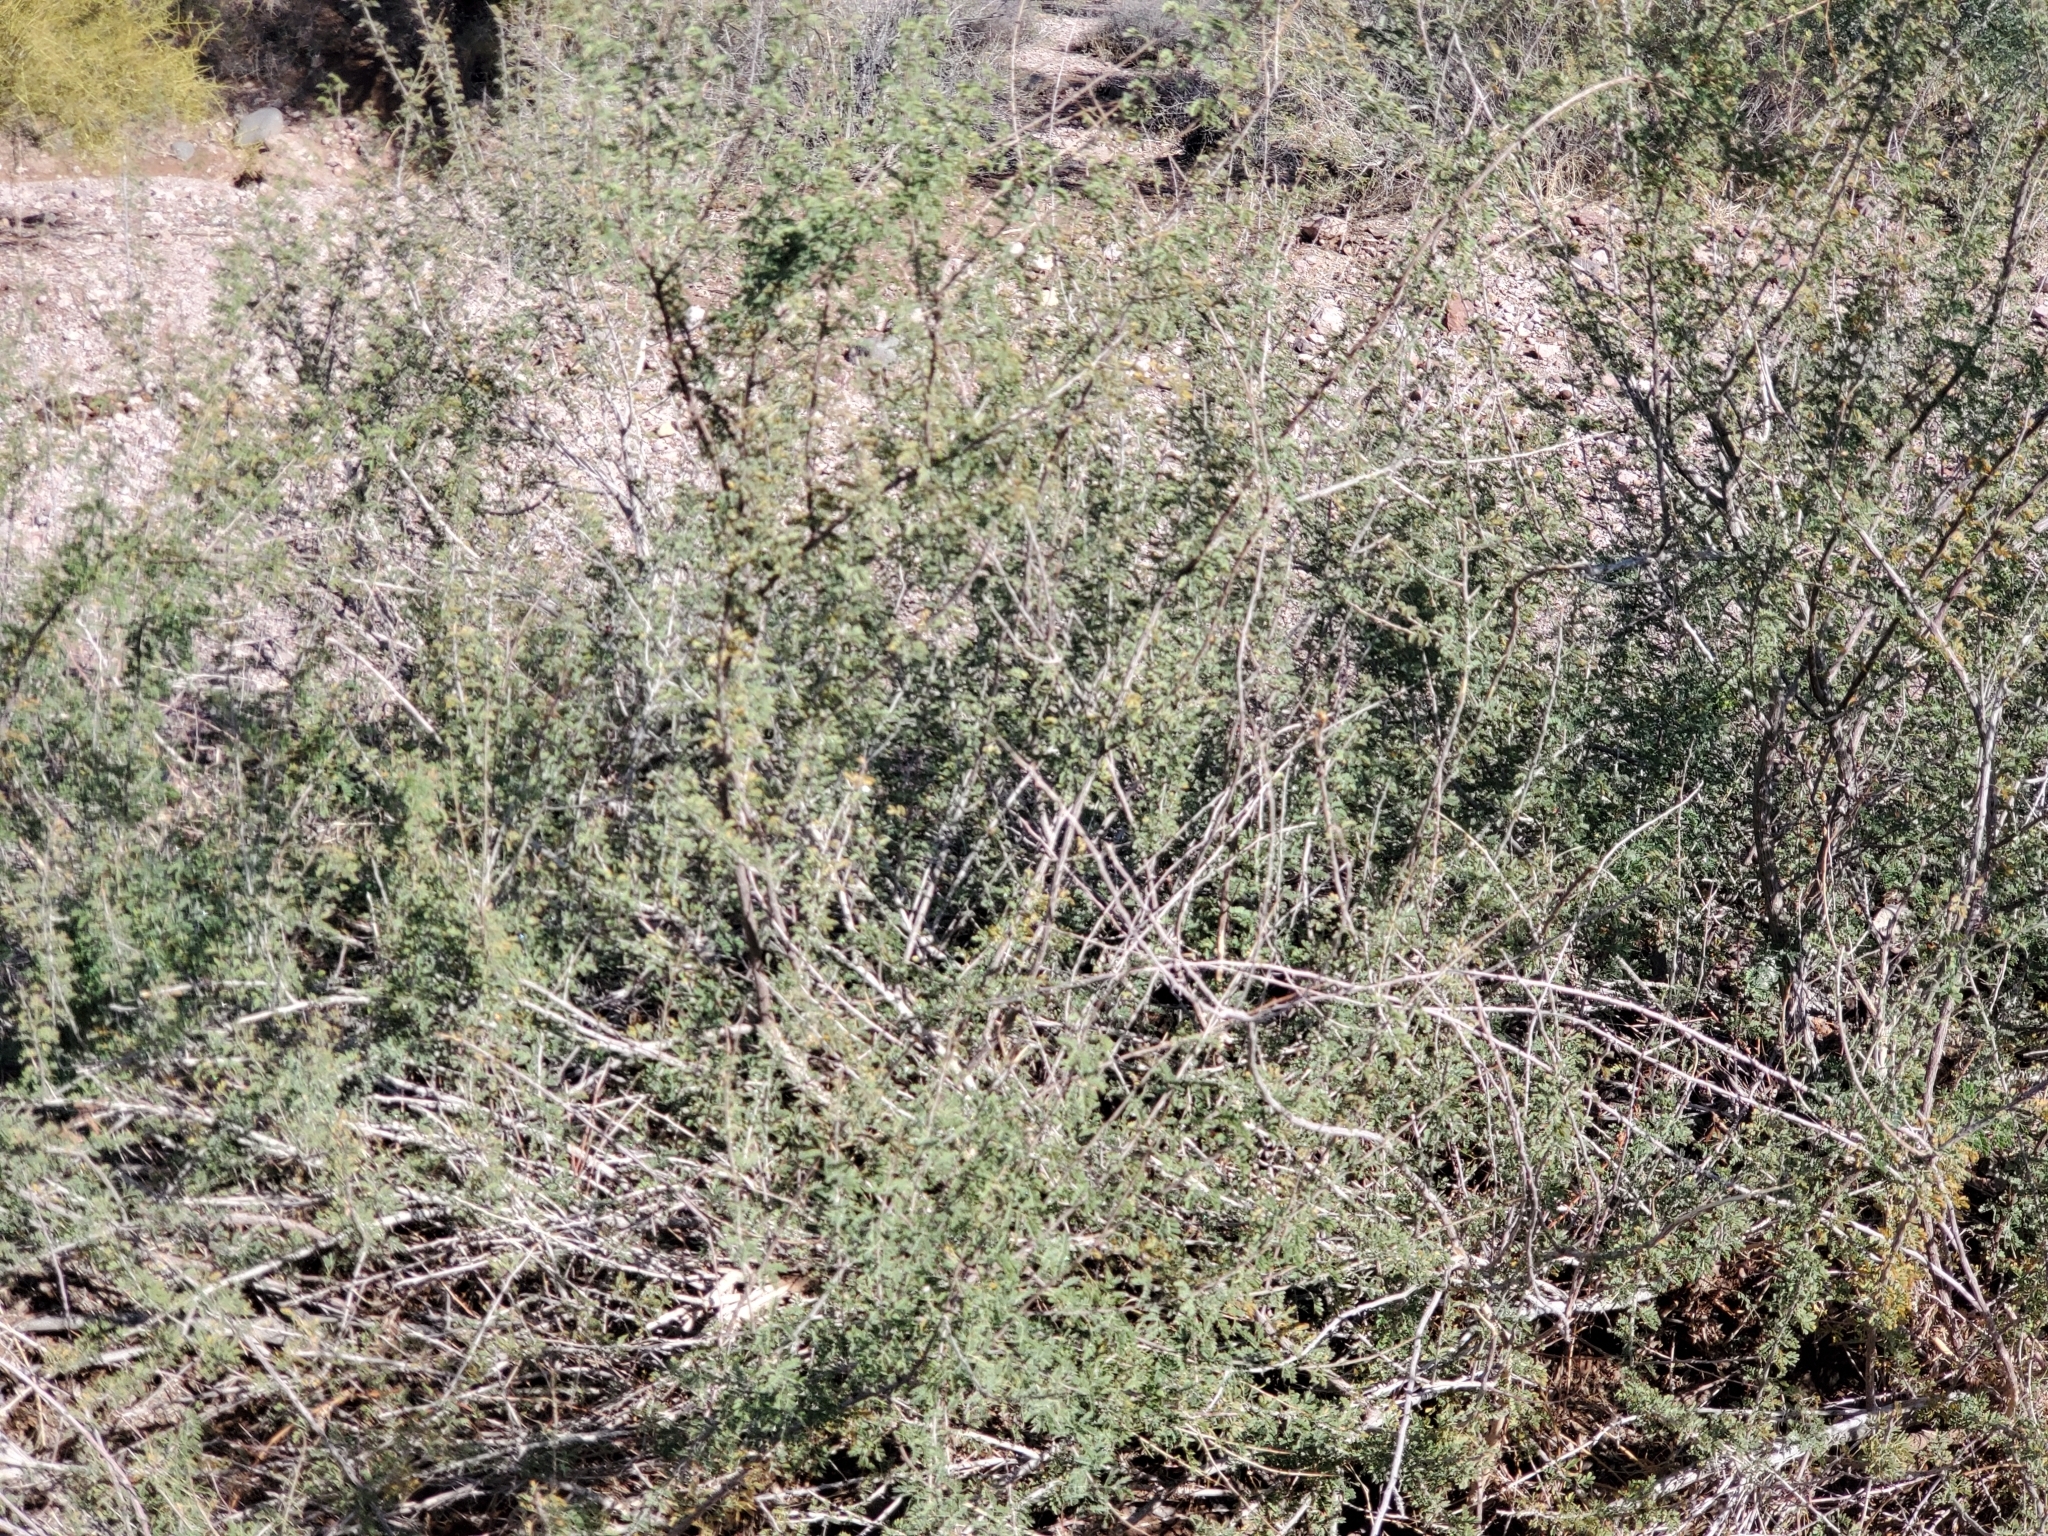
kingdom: Plantae
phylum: Tracheophyta
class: Magnoliopsida
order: Fabales
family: Fabaceae
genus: Senegalia
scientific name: Senegalia greggii
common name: Texas-mimosa
